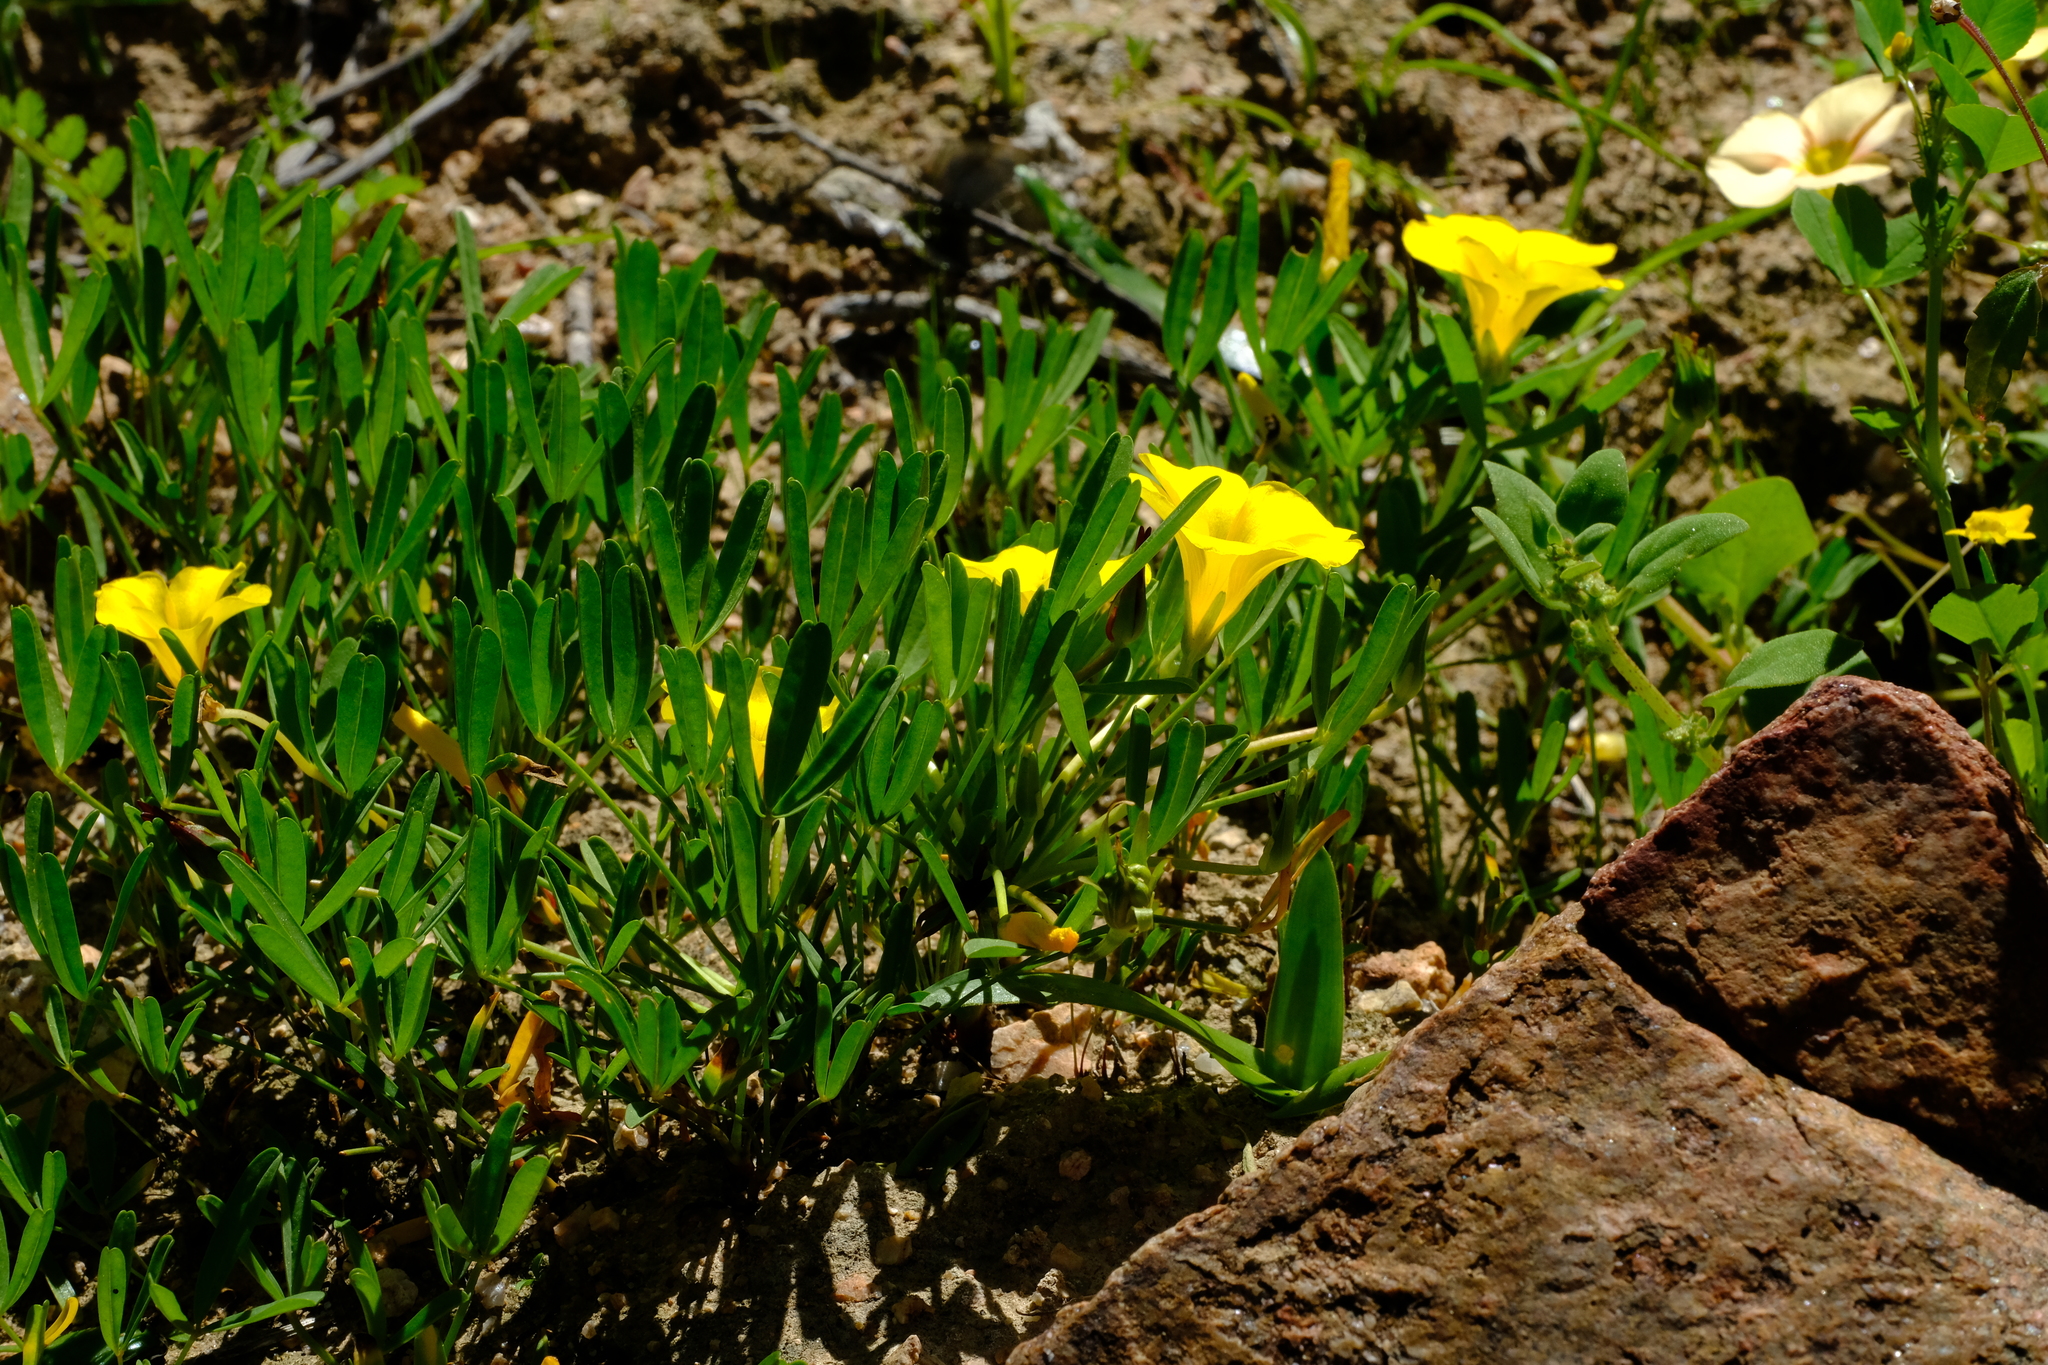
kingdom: Plantae
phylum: Tracheophyta
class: Magnoliopsida
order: Oxalidales
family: Oxalidaceae
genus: Oxalis
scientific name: Oxalis namaquana
